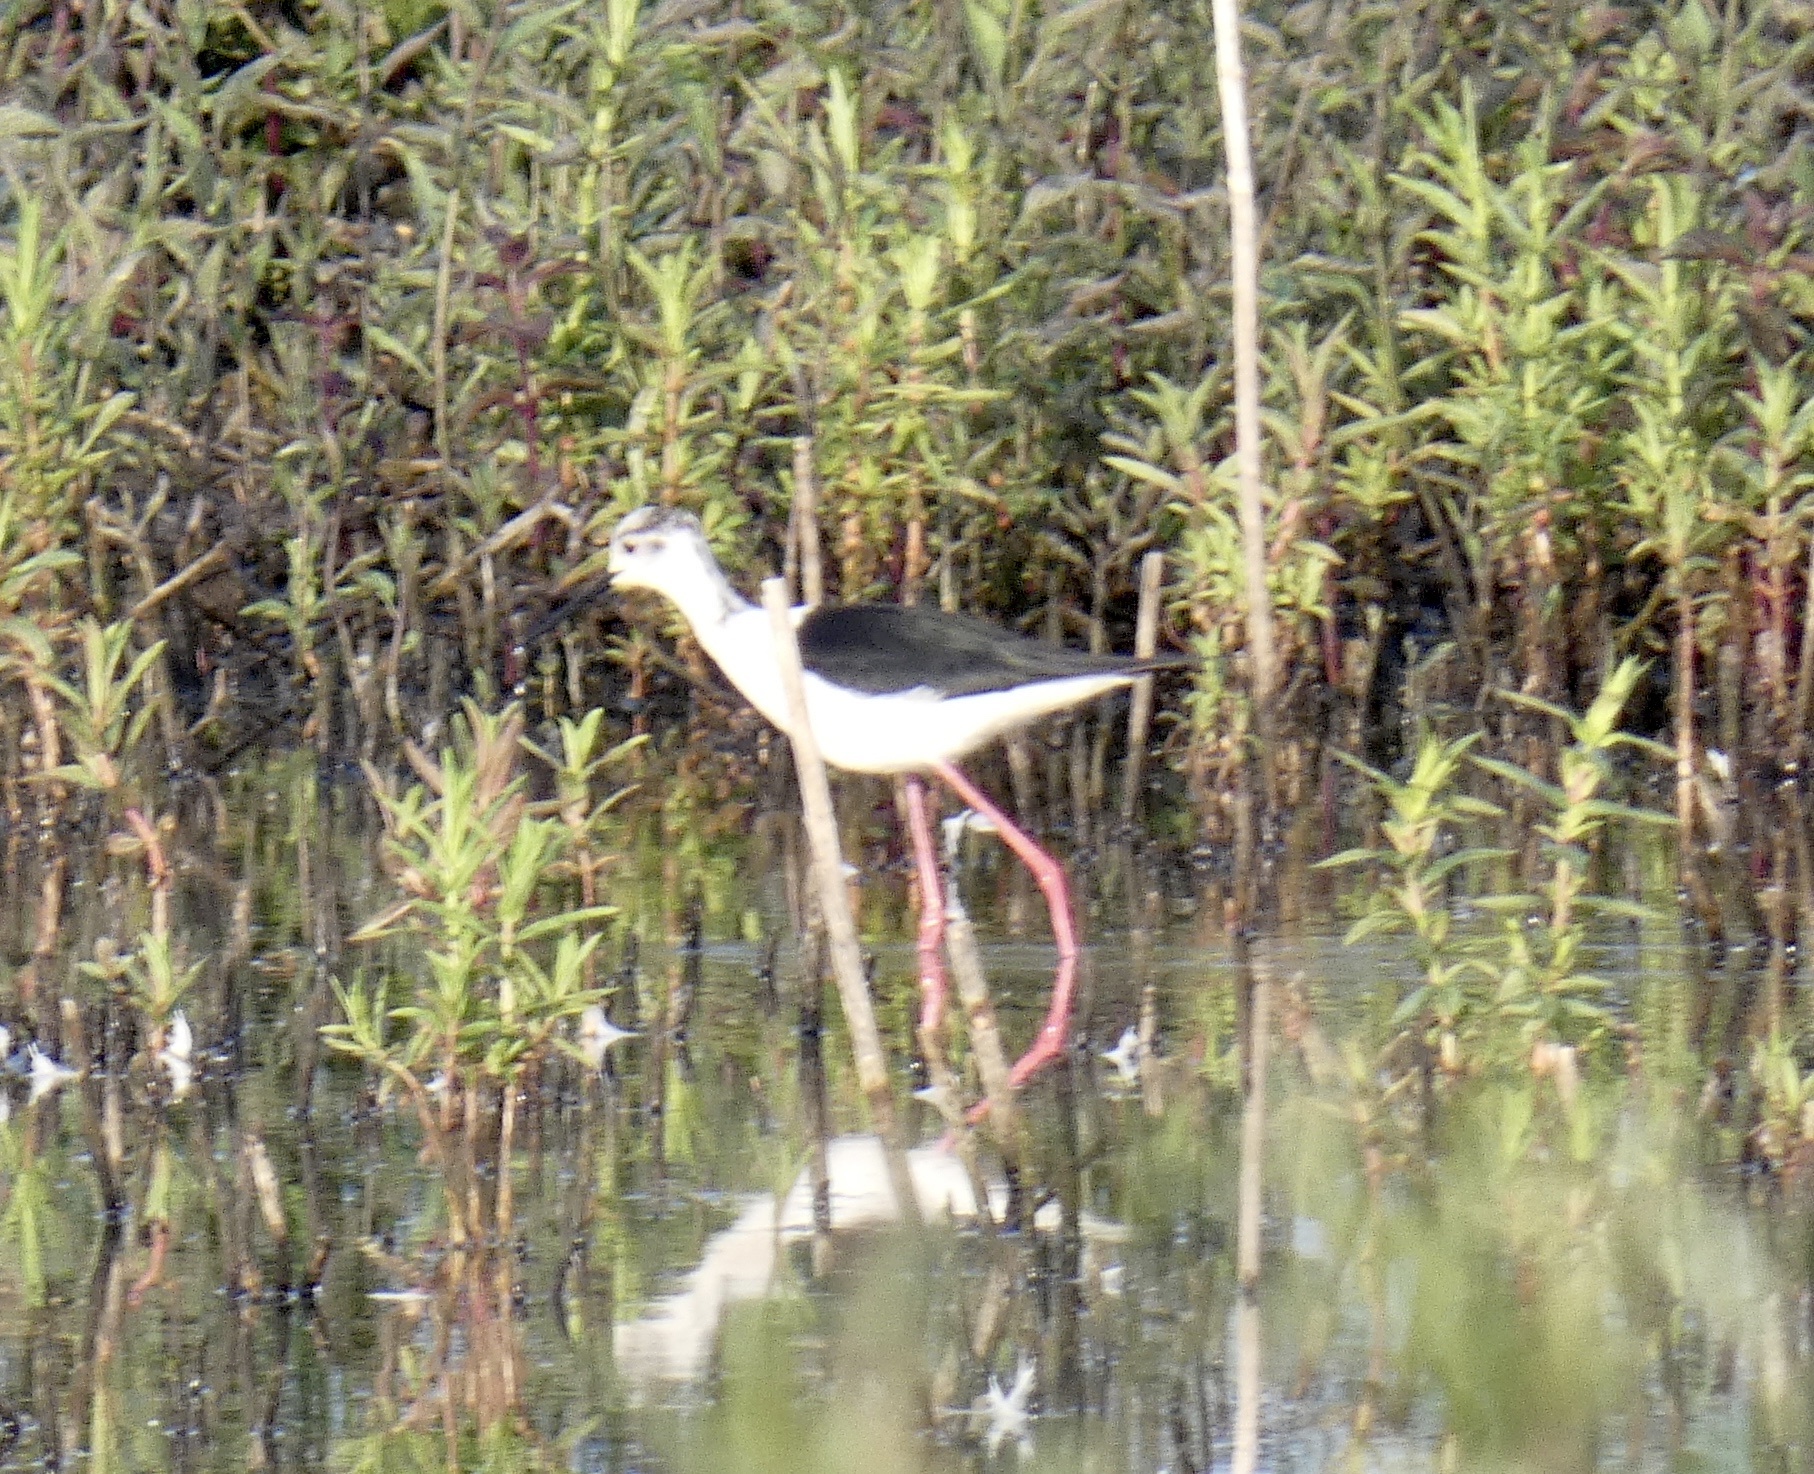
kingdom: Animalia
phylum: Chordata
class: Aves
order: Charadriiformes
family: Recurvirostridae
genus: Himantopus
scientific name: Himantopus himantopus
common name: Black-winged stilt
